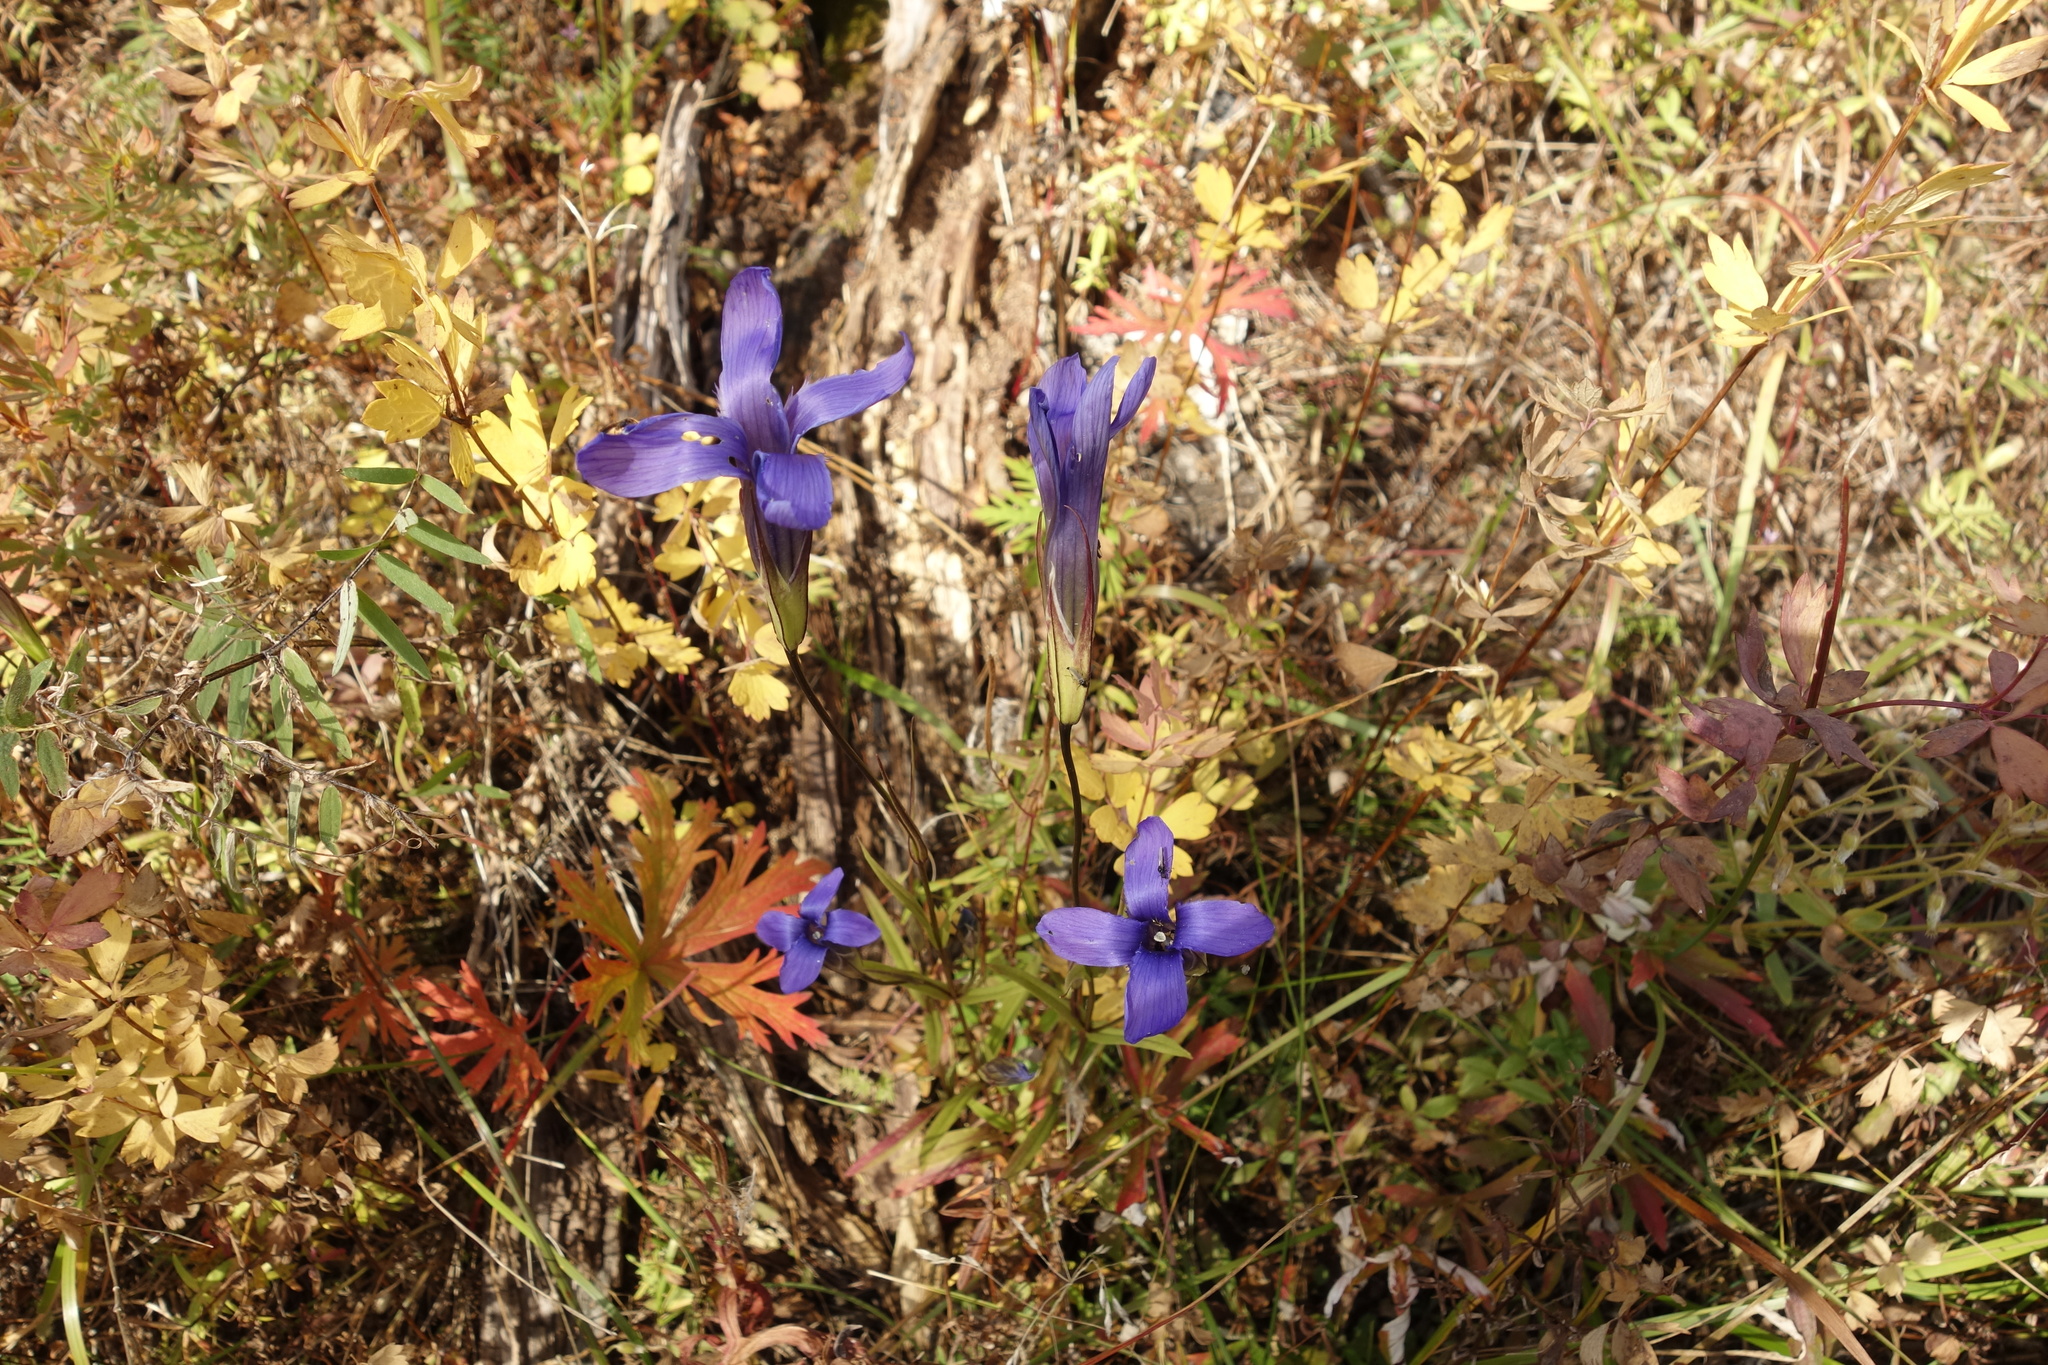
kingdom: Plantae
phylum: Tracheophyta
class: Magnoliopsida
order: Gentianales
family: Gentianaceae
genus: Gentianopsis
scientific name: Gentianopsis barbata
